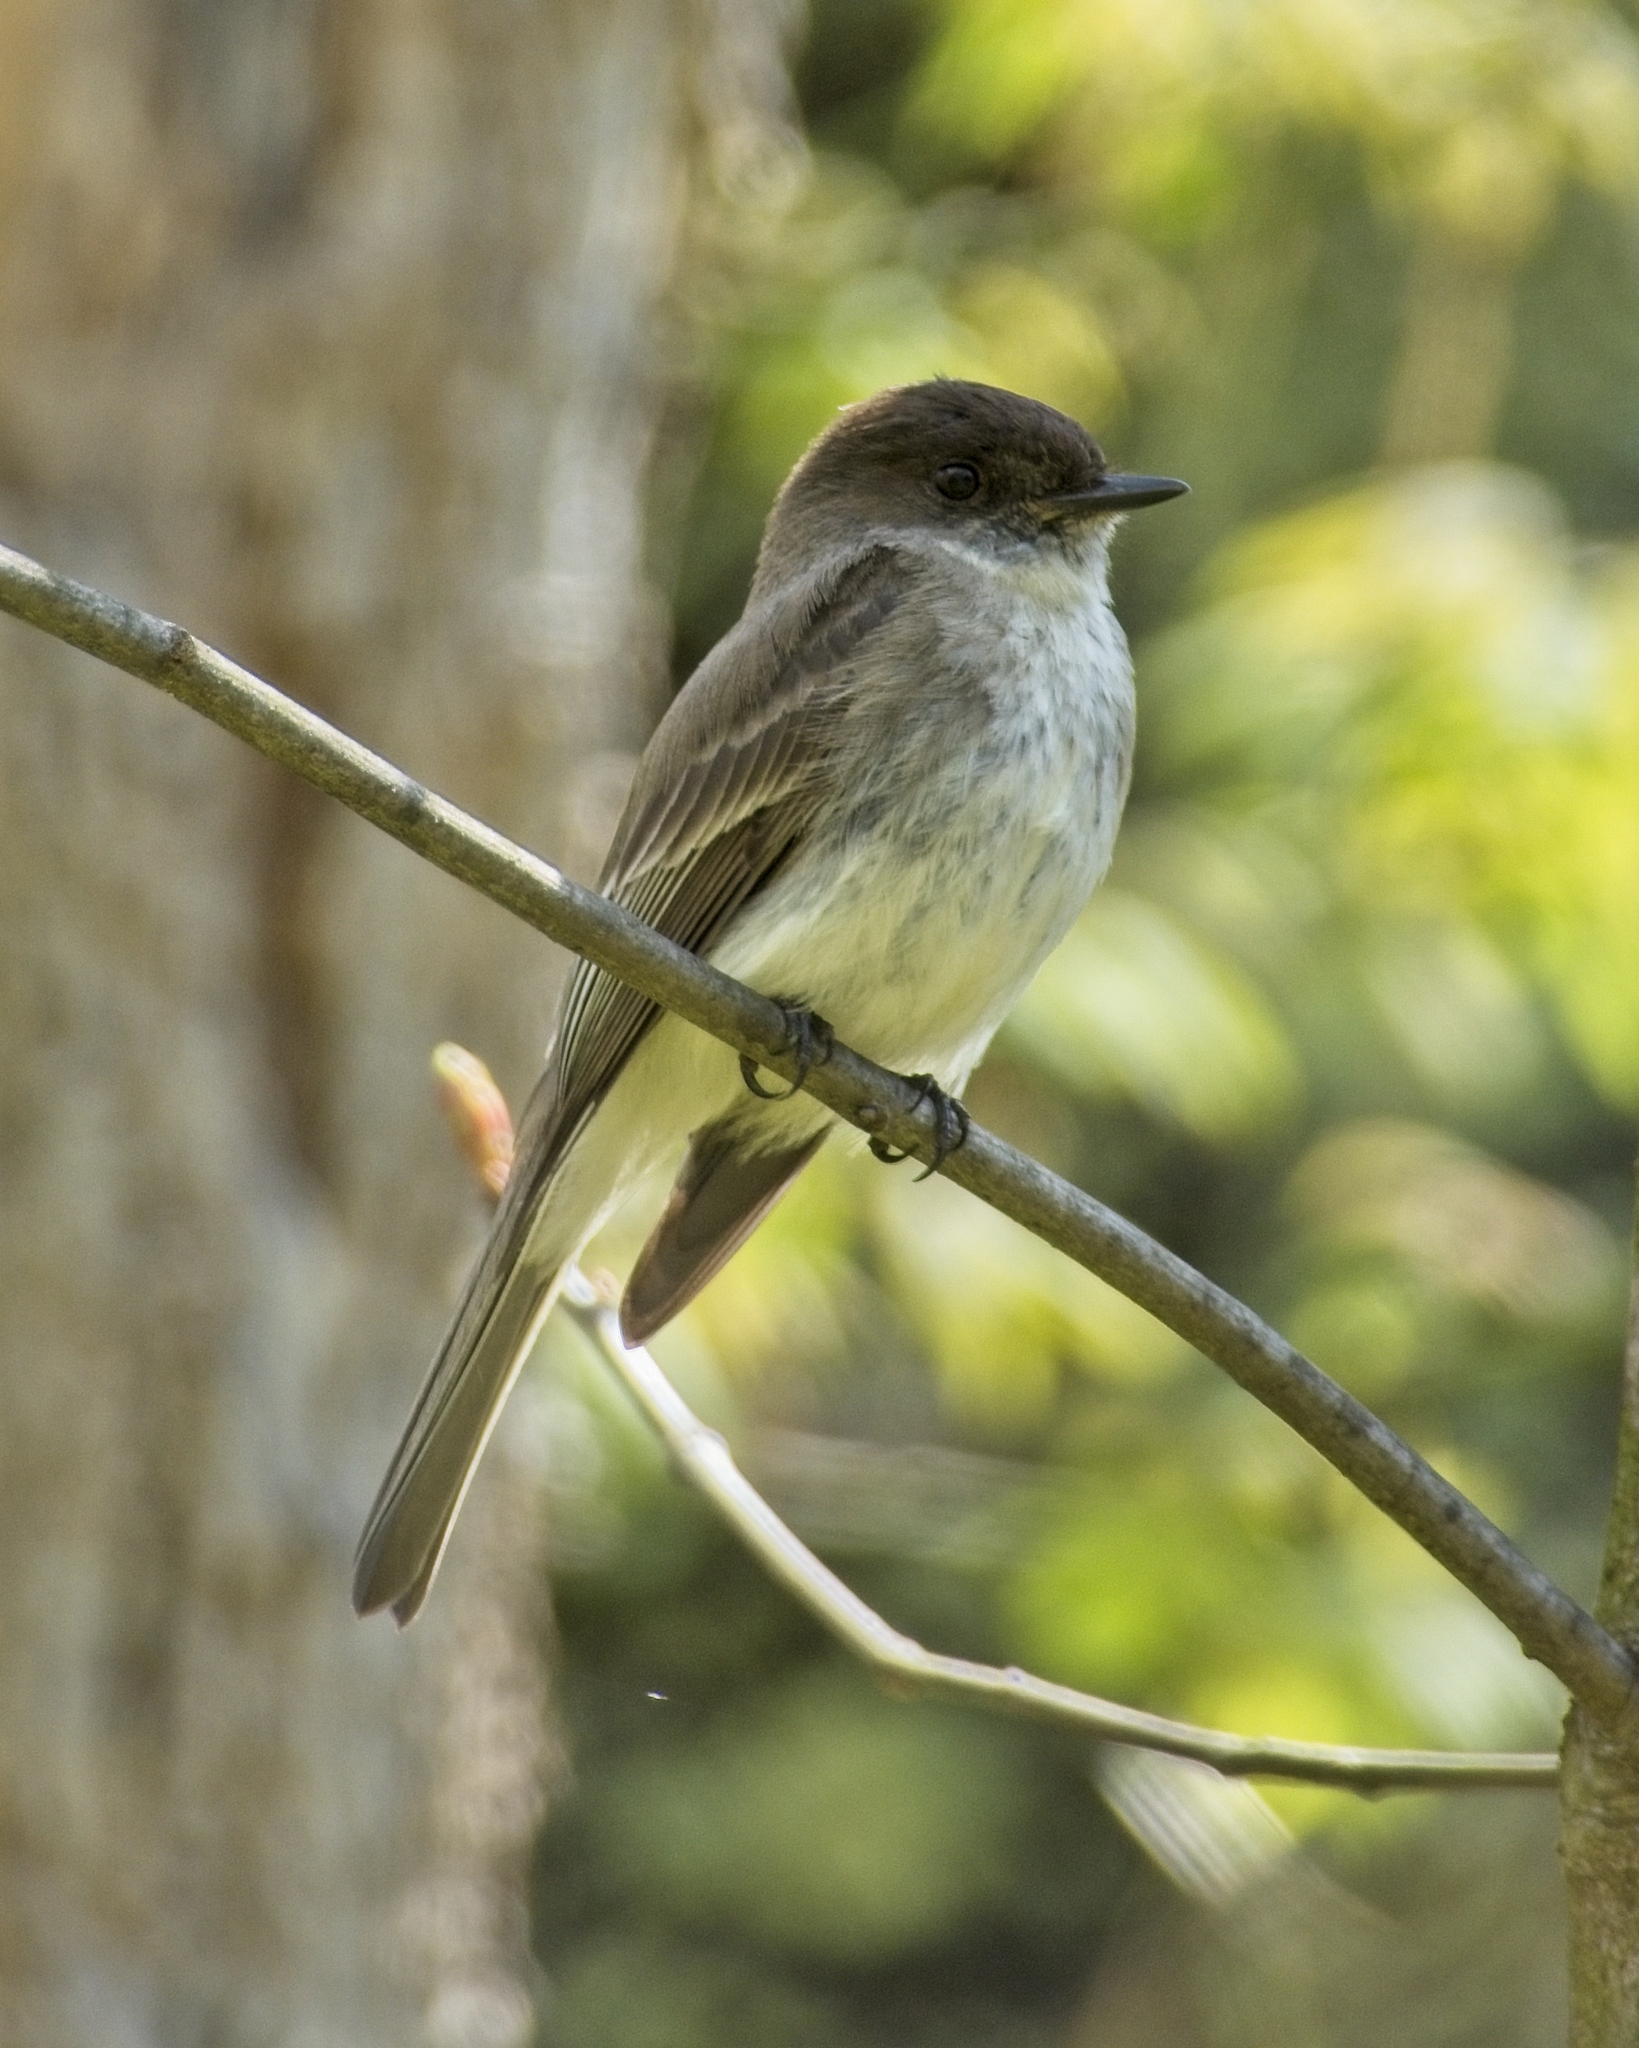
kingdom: Animalia
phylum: Chordata
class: Aves
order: Passeriformes
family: Tyrannidae
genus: Sayornis
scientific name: Sayornis phoebe
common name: Eastern phoebe
